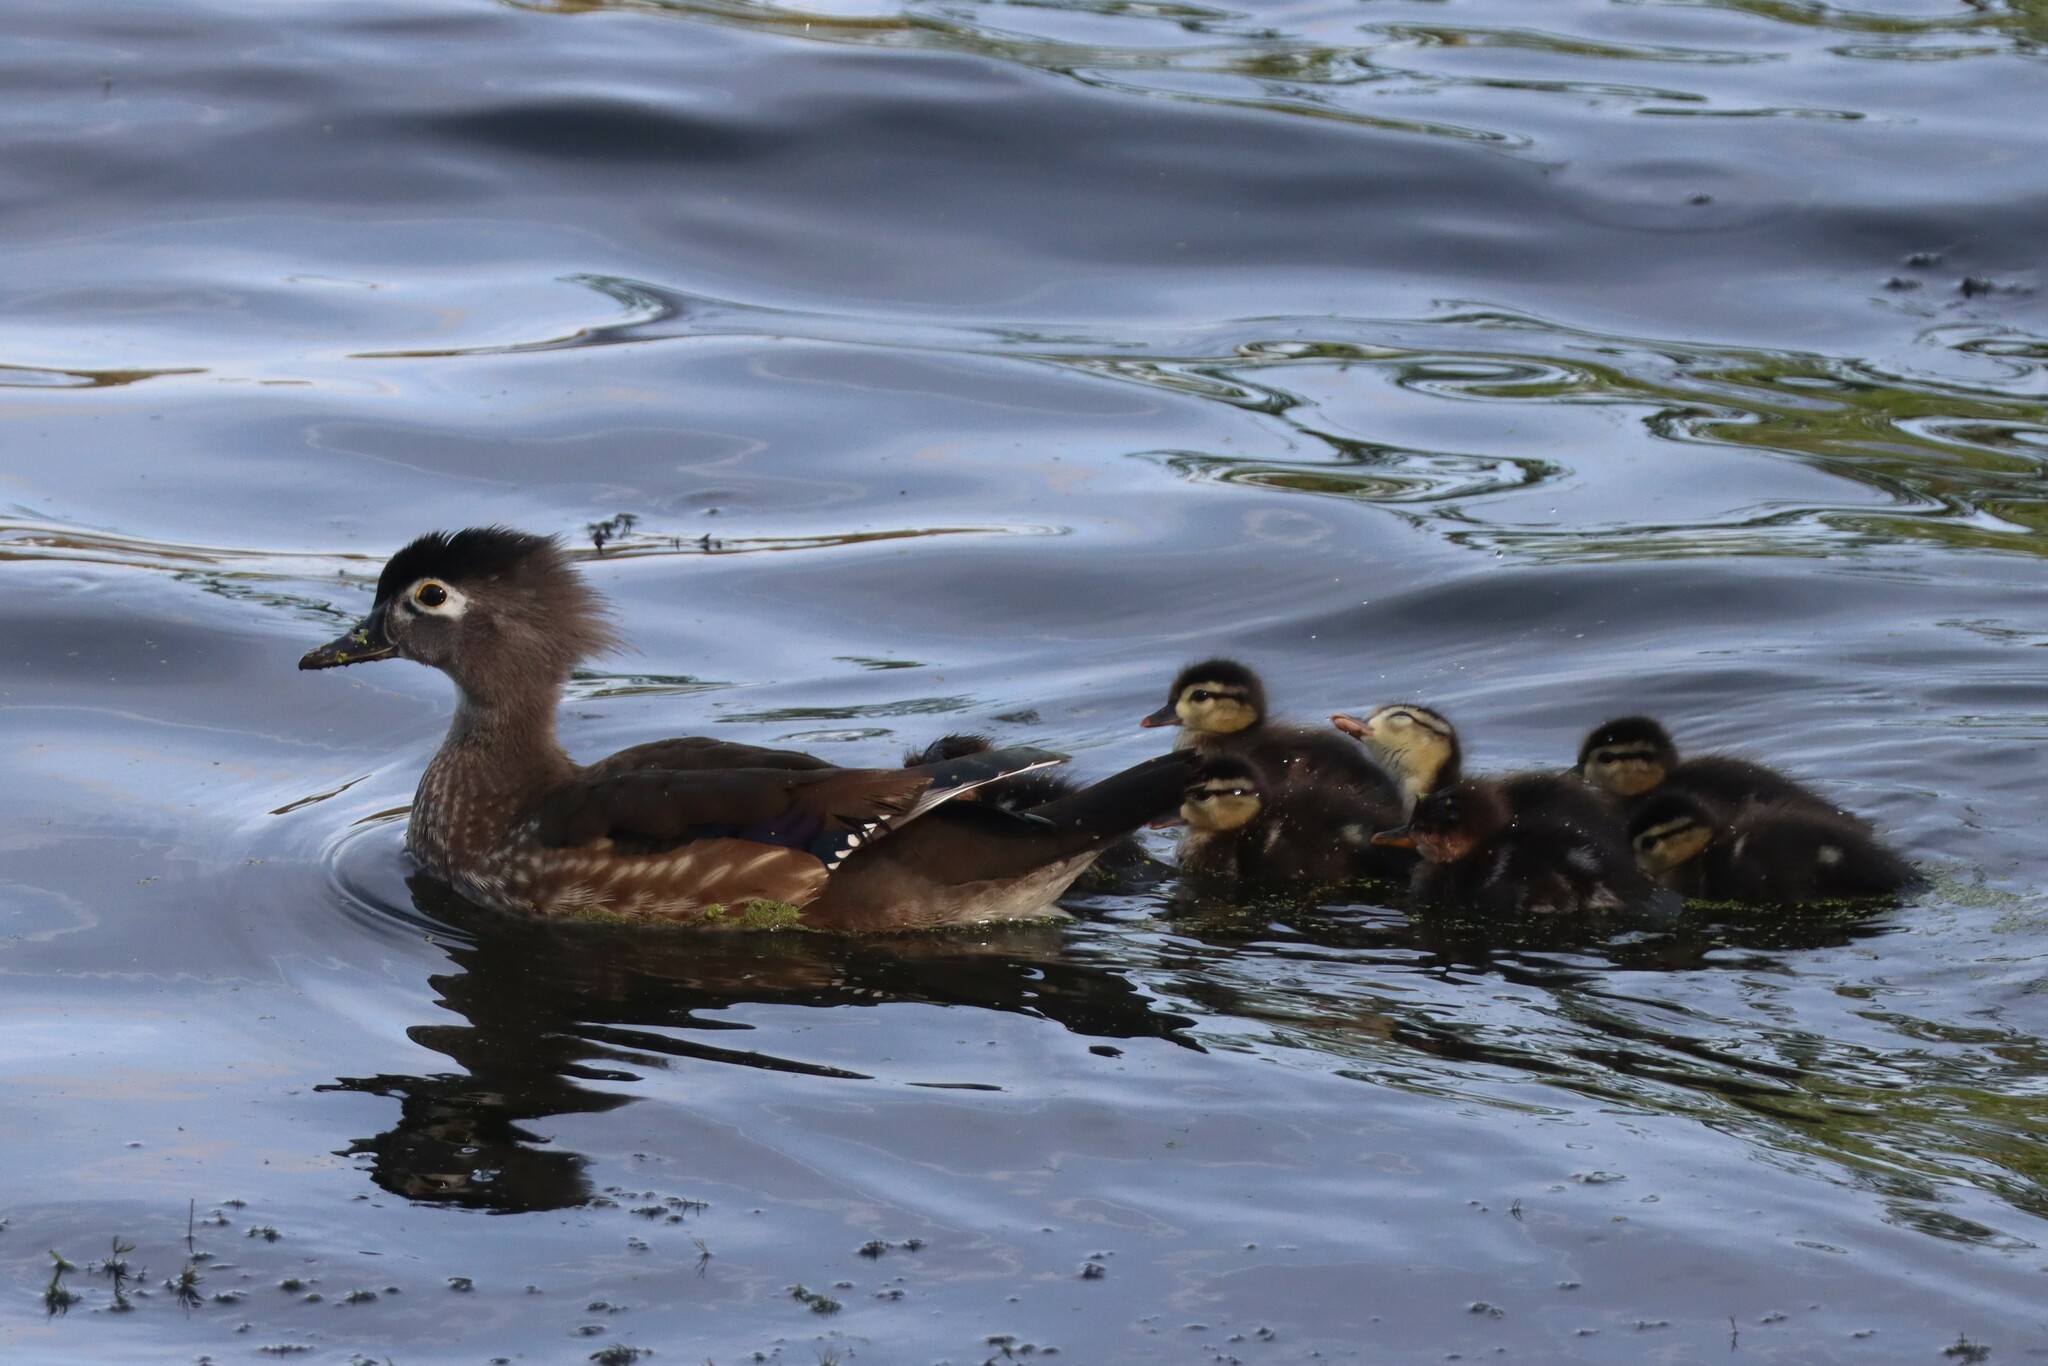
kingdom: Animalia
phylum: Chordata
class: Aves
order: Anseriformes
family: Anatidae
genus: Aix
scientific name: Aix sponsa
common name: Wood duck
